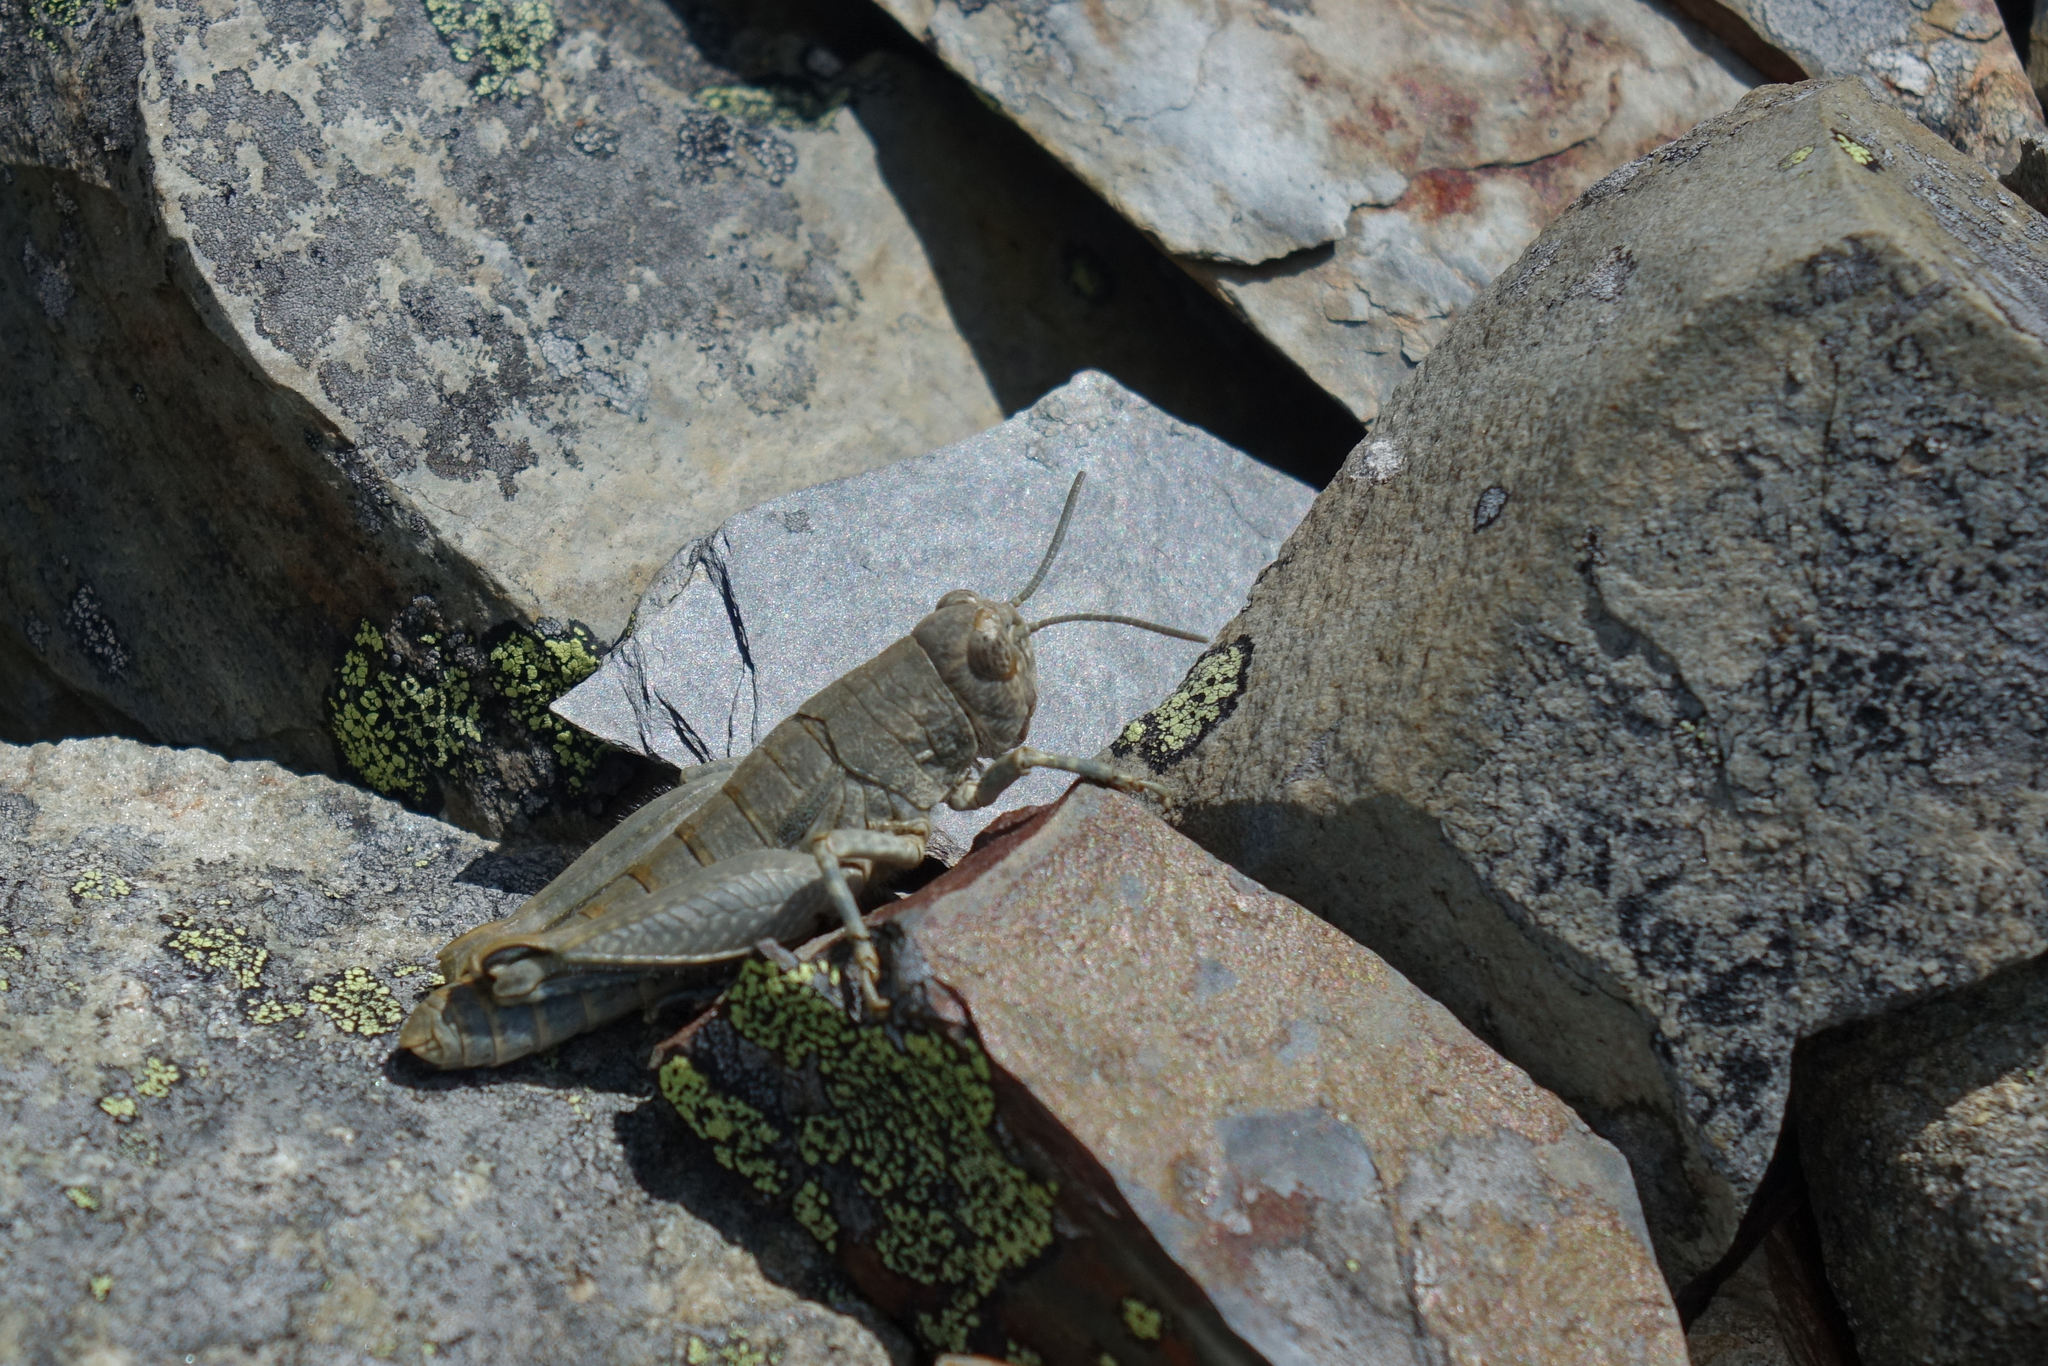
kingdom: Animalia
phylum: Arthropoda
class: Insecta
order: Orthoptera
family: Acrididae
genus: Sigaus
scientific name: Sigaus
